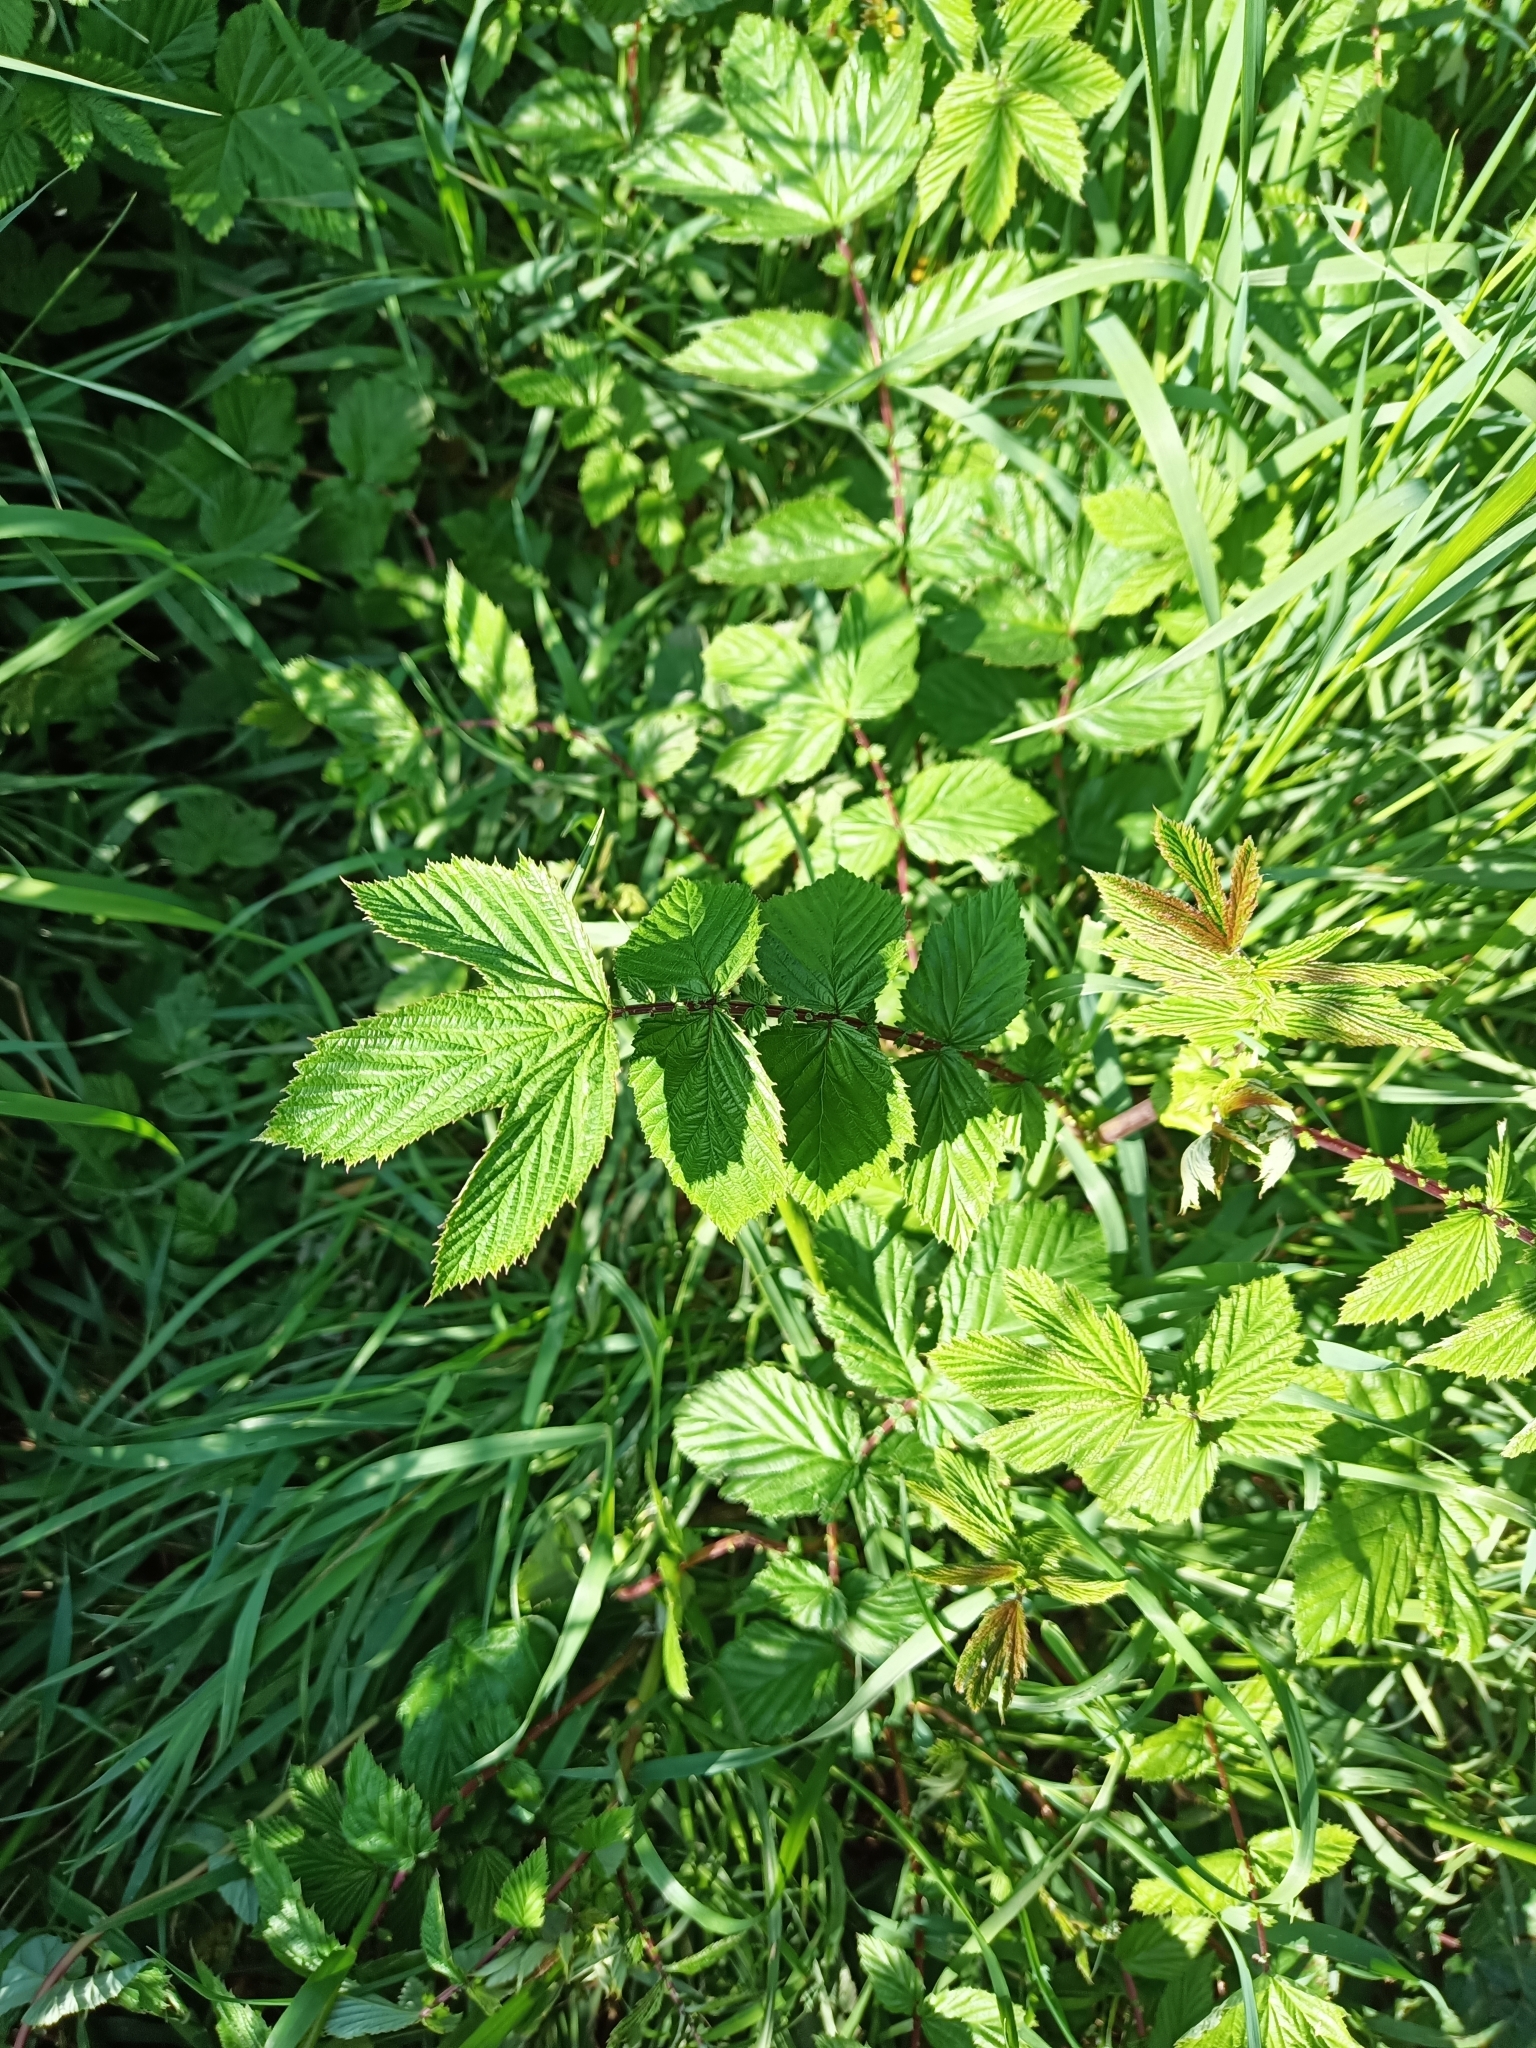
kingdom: Plantae
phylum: Tracheophyta
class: Magnoliopsida
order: Rosales
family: Rosaceae
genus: Filipendula
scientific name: Filipendula ulmaria
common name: Meadowsweet
